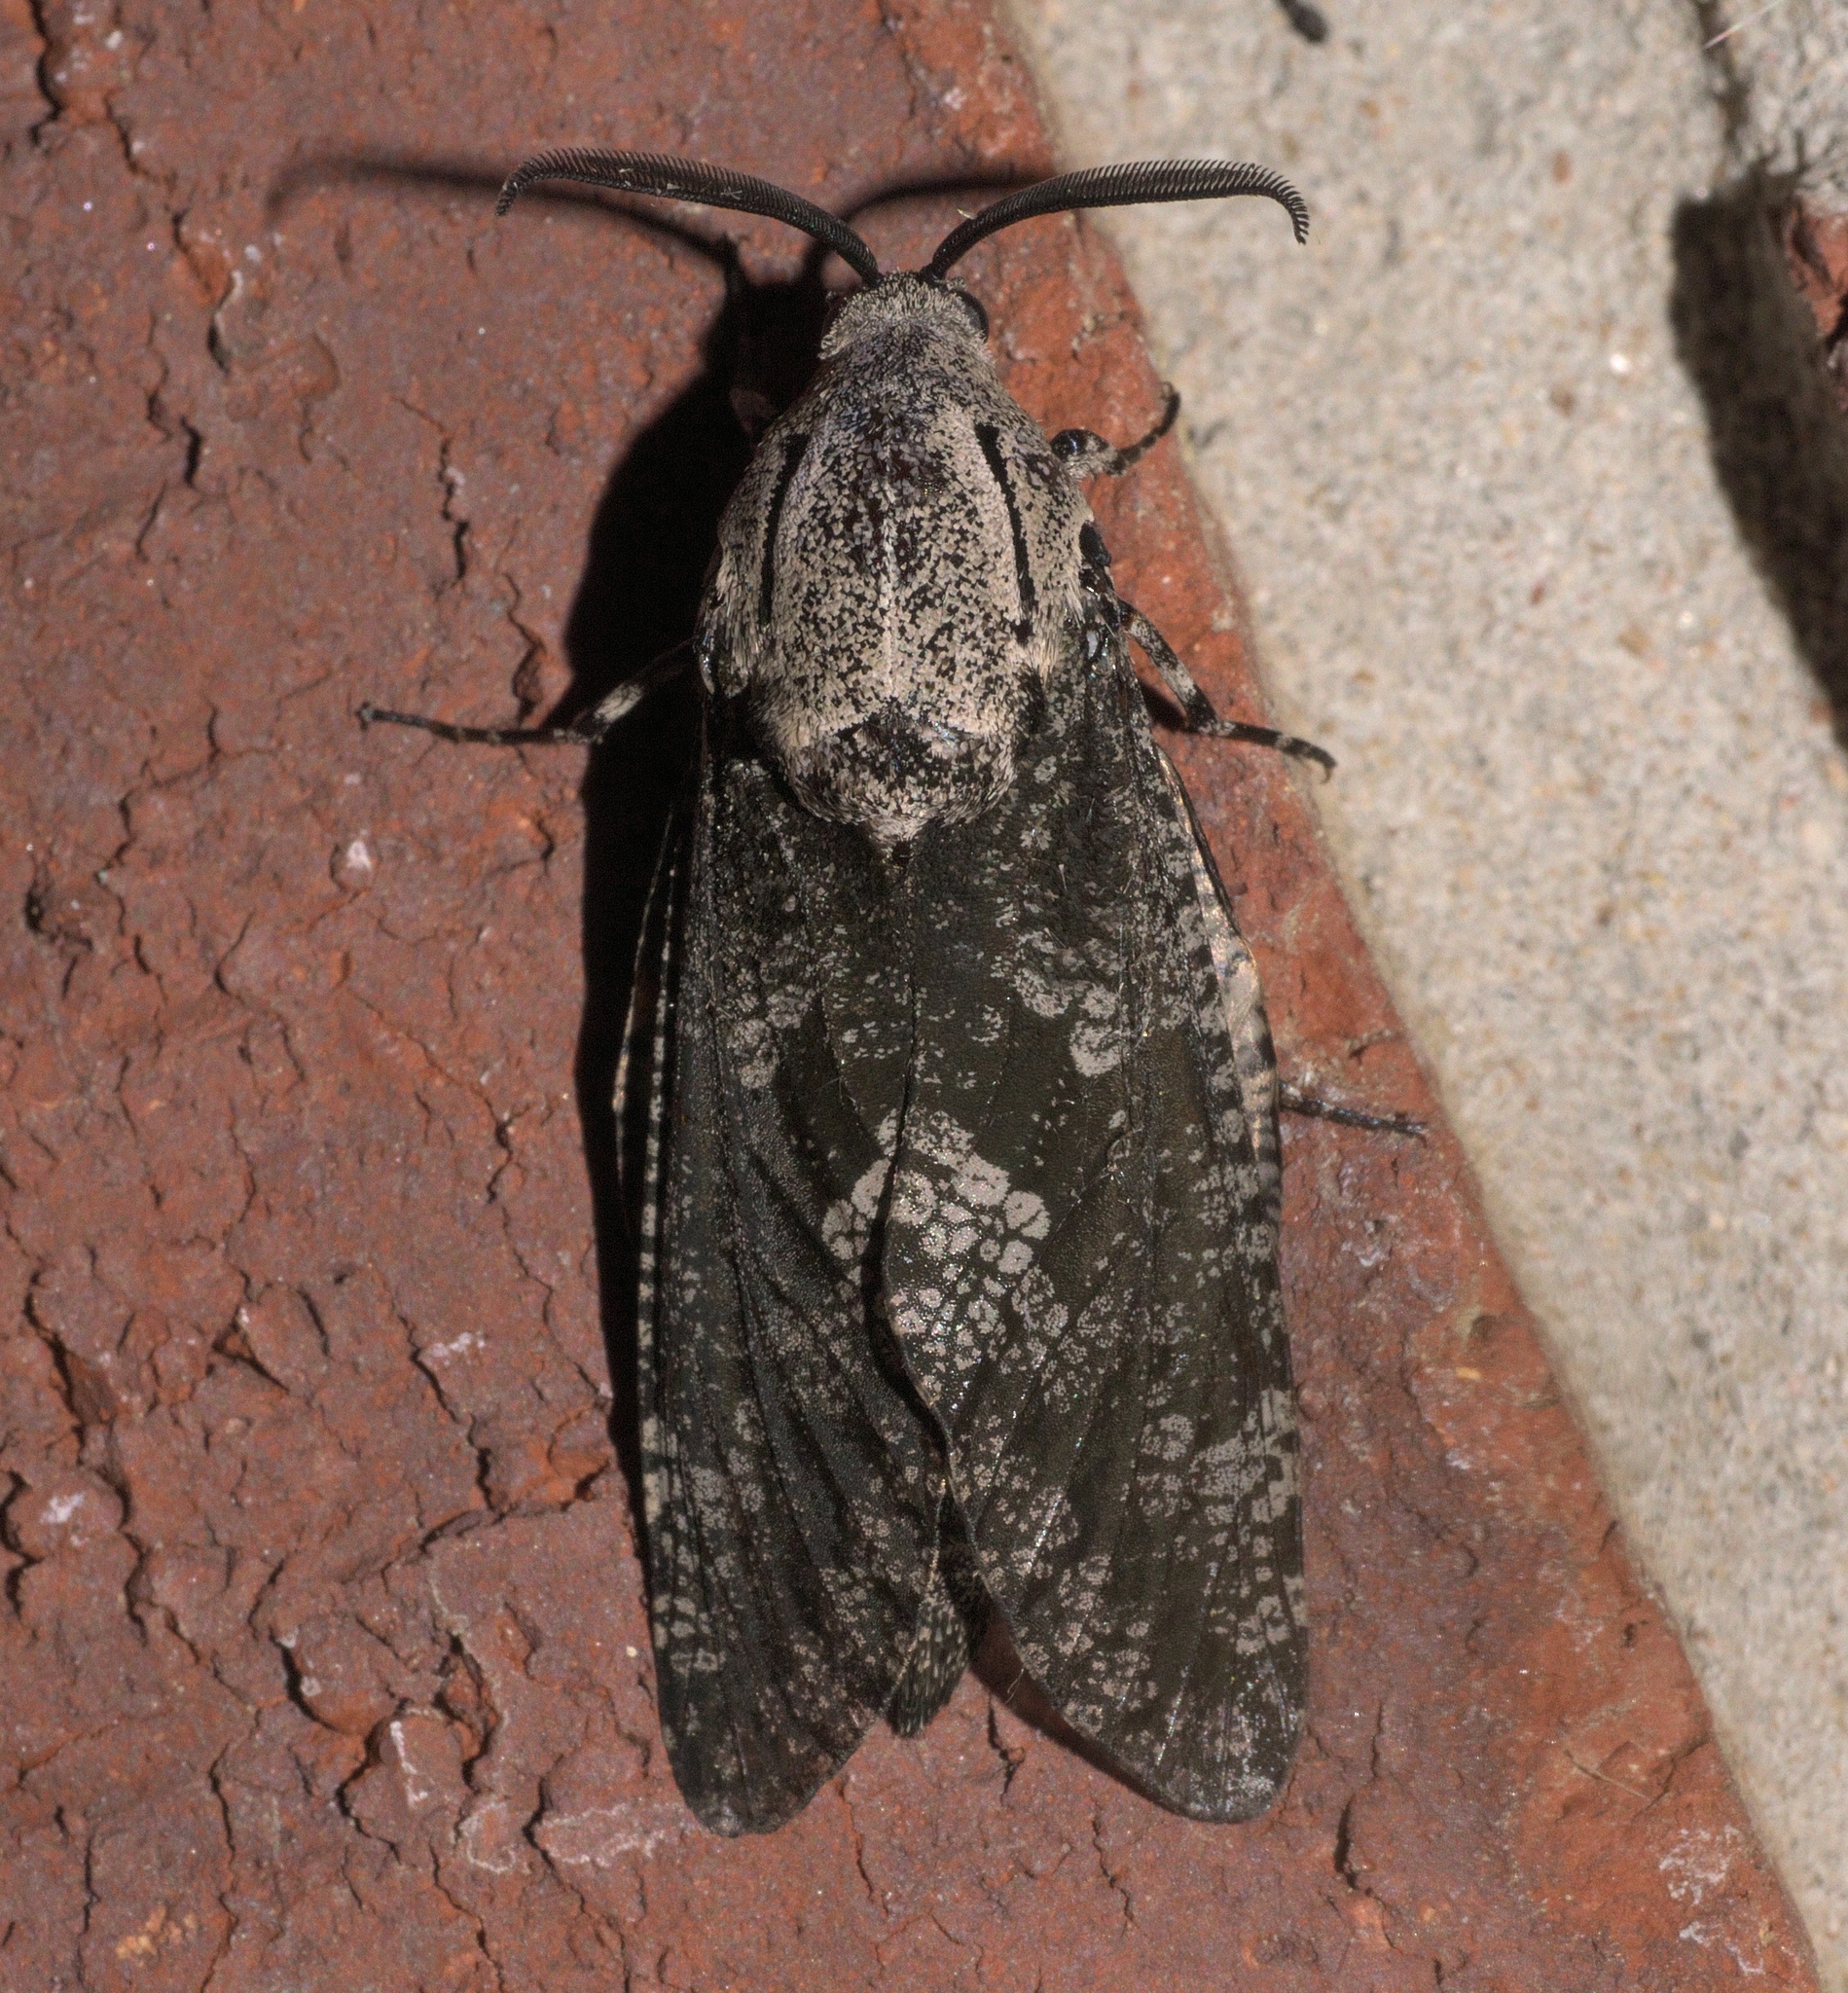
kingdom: Animalia
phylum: Arthropoda
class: Insecta
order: Lepidoptera
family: Cossidae
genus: Prionoxystus
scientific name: Prionoxystus robiniae
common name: Carpenterworm
